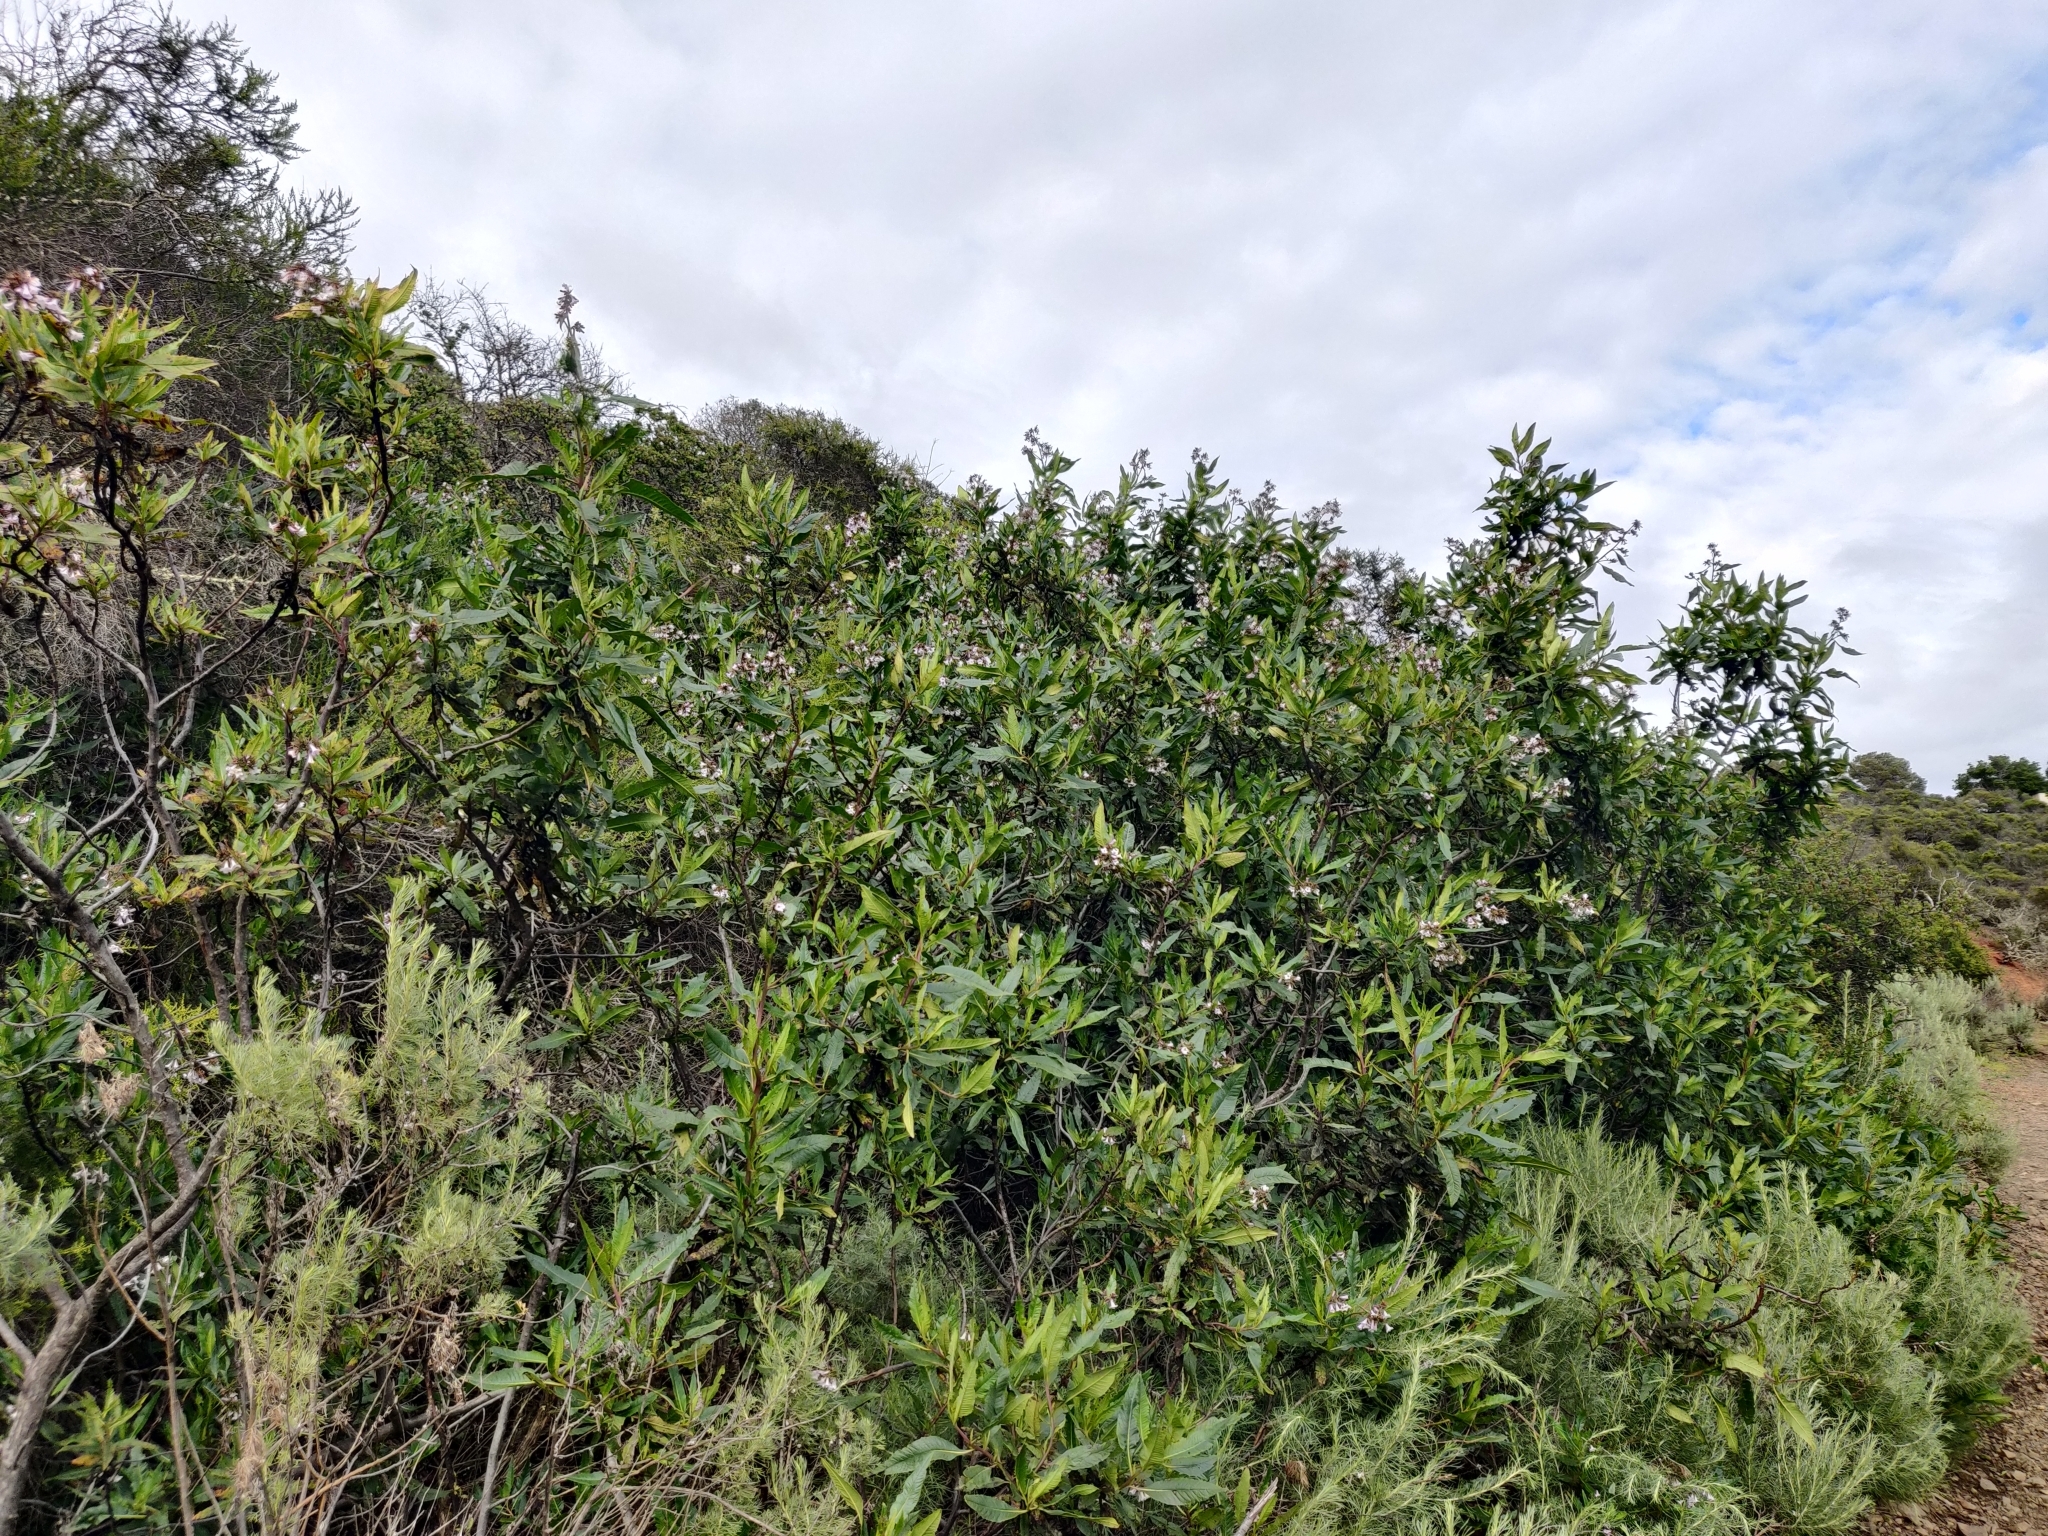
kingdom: Plantae
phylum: Tracheophyta
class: Magnoliopsida
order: Boraginales
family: Namaceae
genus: Eriodictyon
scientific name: Eriodictyon californicum
